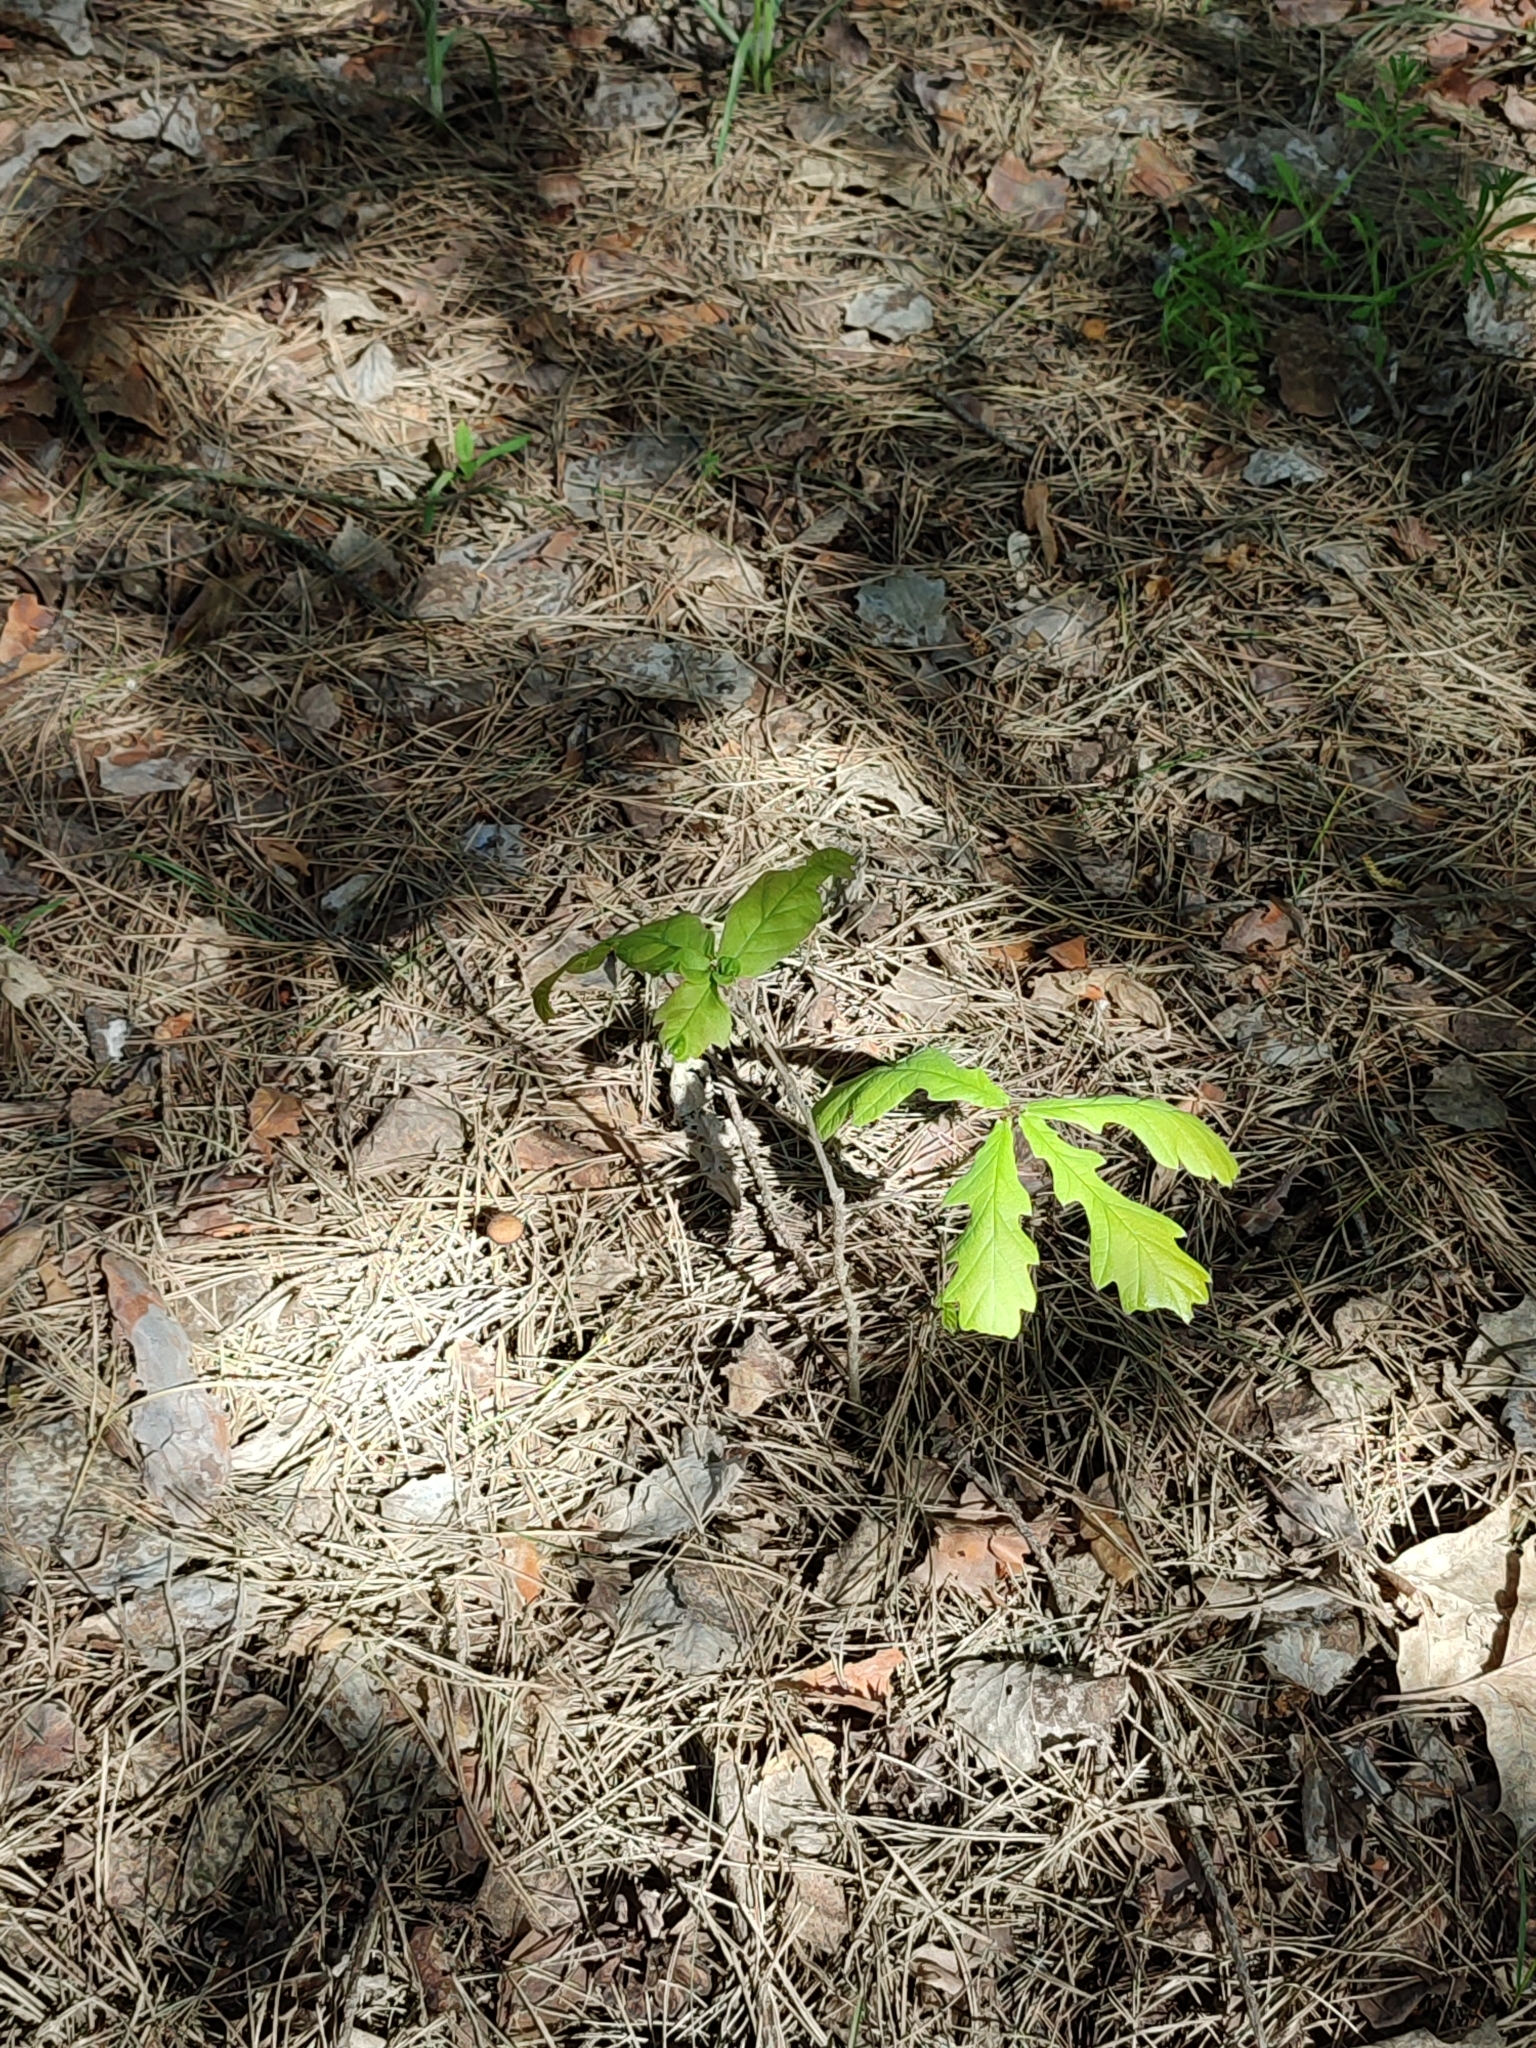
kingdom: Plantae
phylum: Tracheophyta
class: Magnoliopsida
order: Fagales
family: Fagaceae
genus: Quercus
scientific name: Quercus robur
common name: Pedunculate oak
